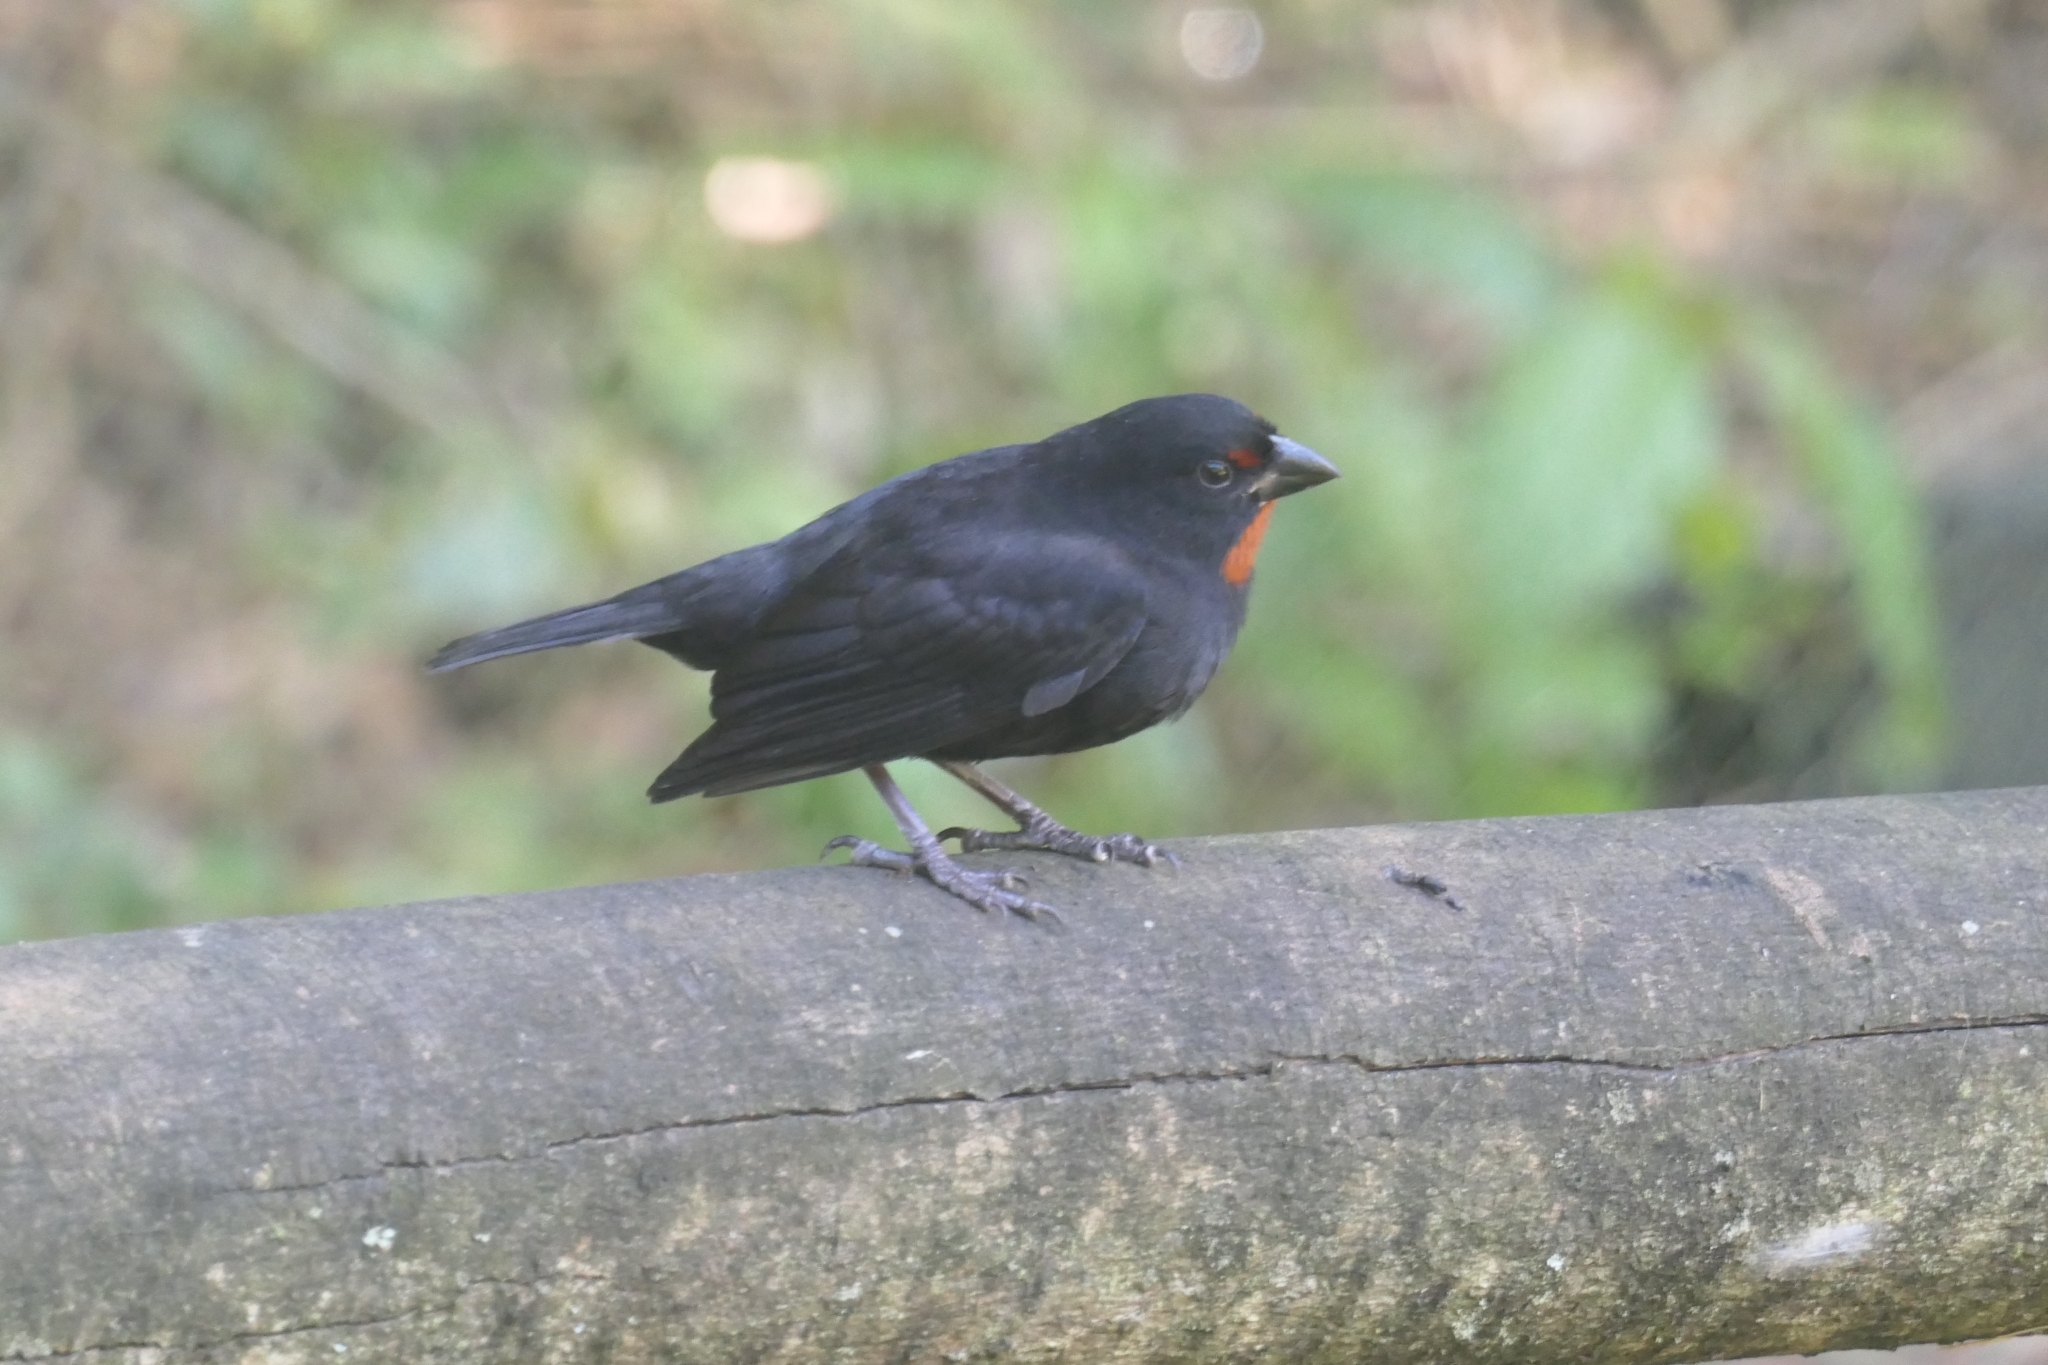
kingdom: Animalia
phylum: Chordata
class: Aves
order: Passeriformes
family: Thraupidae
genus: Loxigilla
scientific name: Loxigilla noctis
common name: Lesser antillean bullfinch
